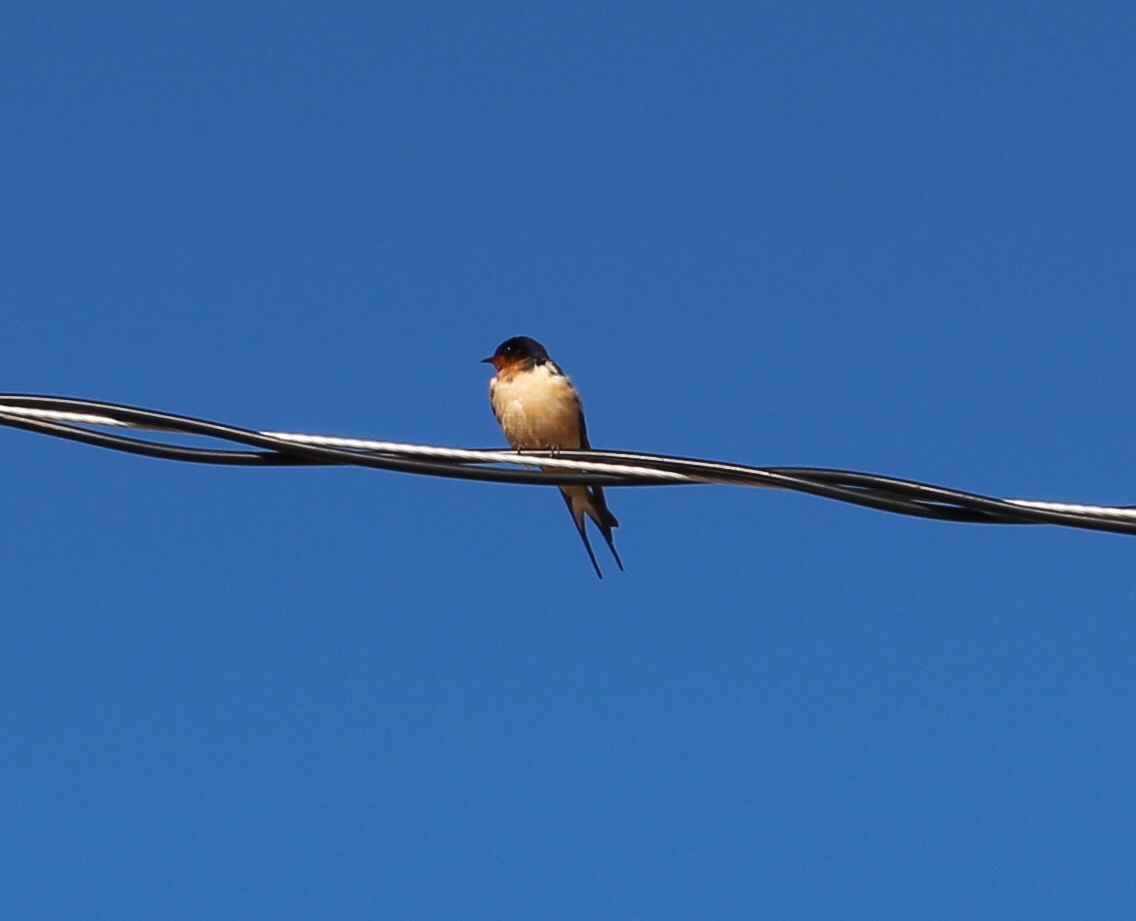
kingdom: Animalia
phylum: Chordata
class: Aves
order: Passeriformes
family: Hirundinidae
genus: Hirundo
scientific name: Hirundo rustica
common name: Barn swallow
